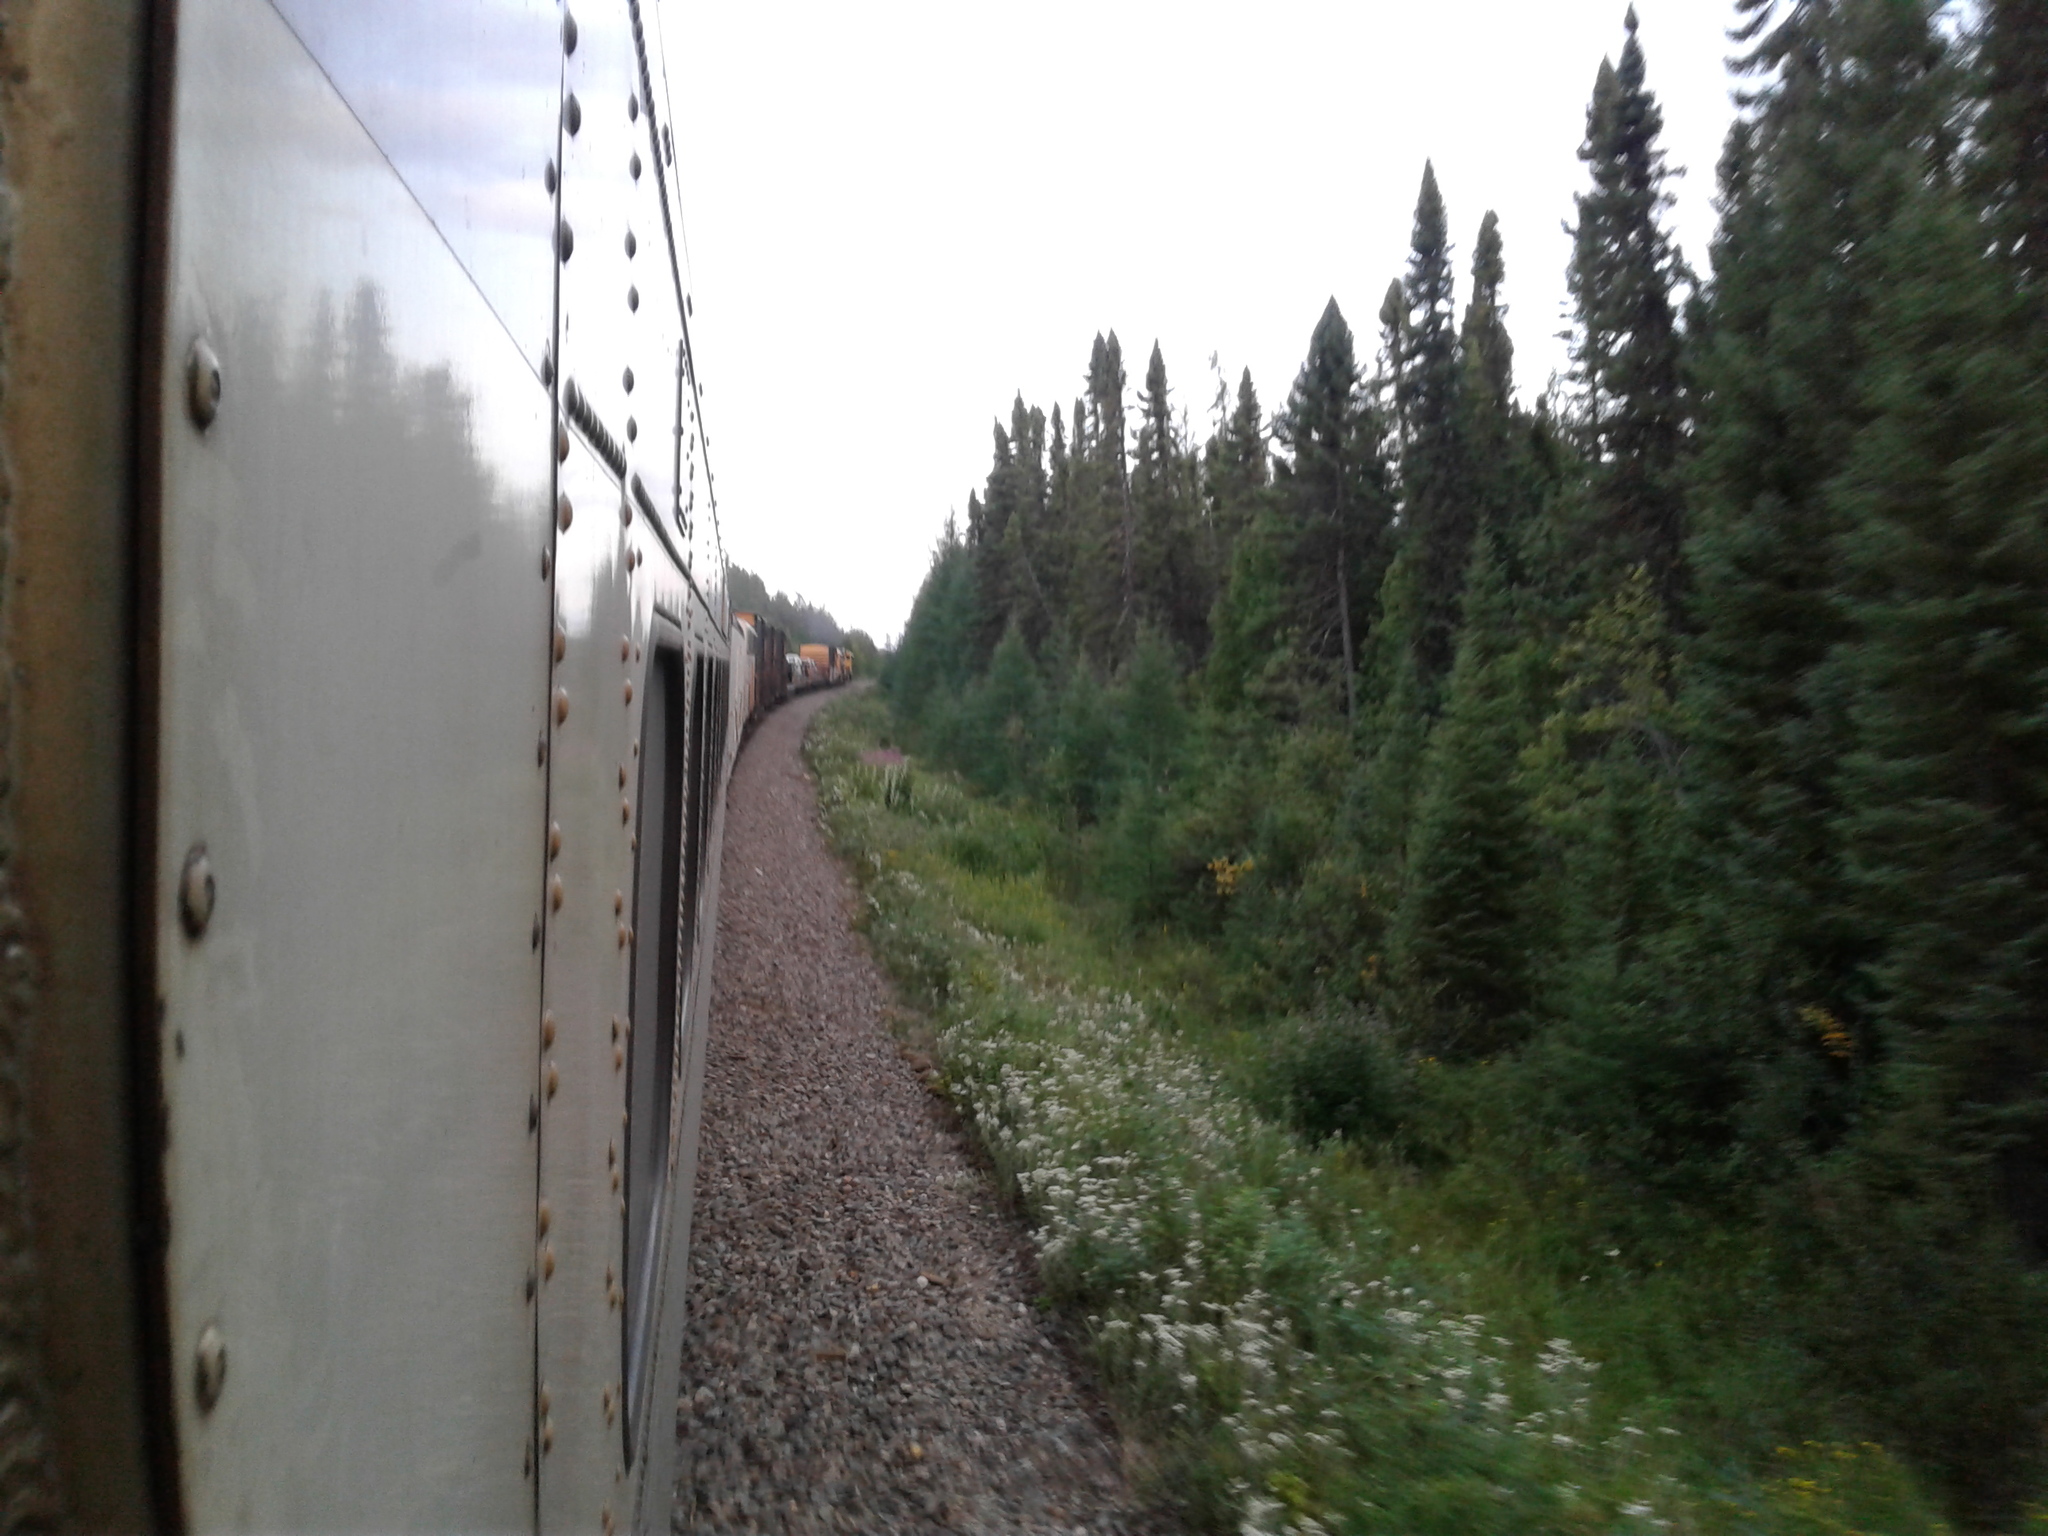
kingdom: Plantae
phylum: Tracheophyta
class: Pinopsida
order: Pinales
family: Pinaceae
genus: Picea
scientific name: Picea mariana
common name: Black spruce
